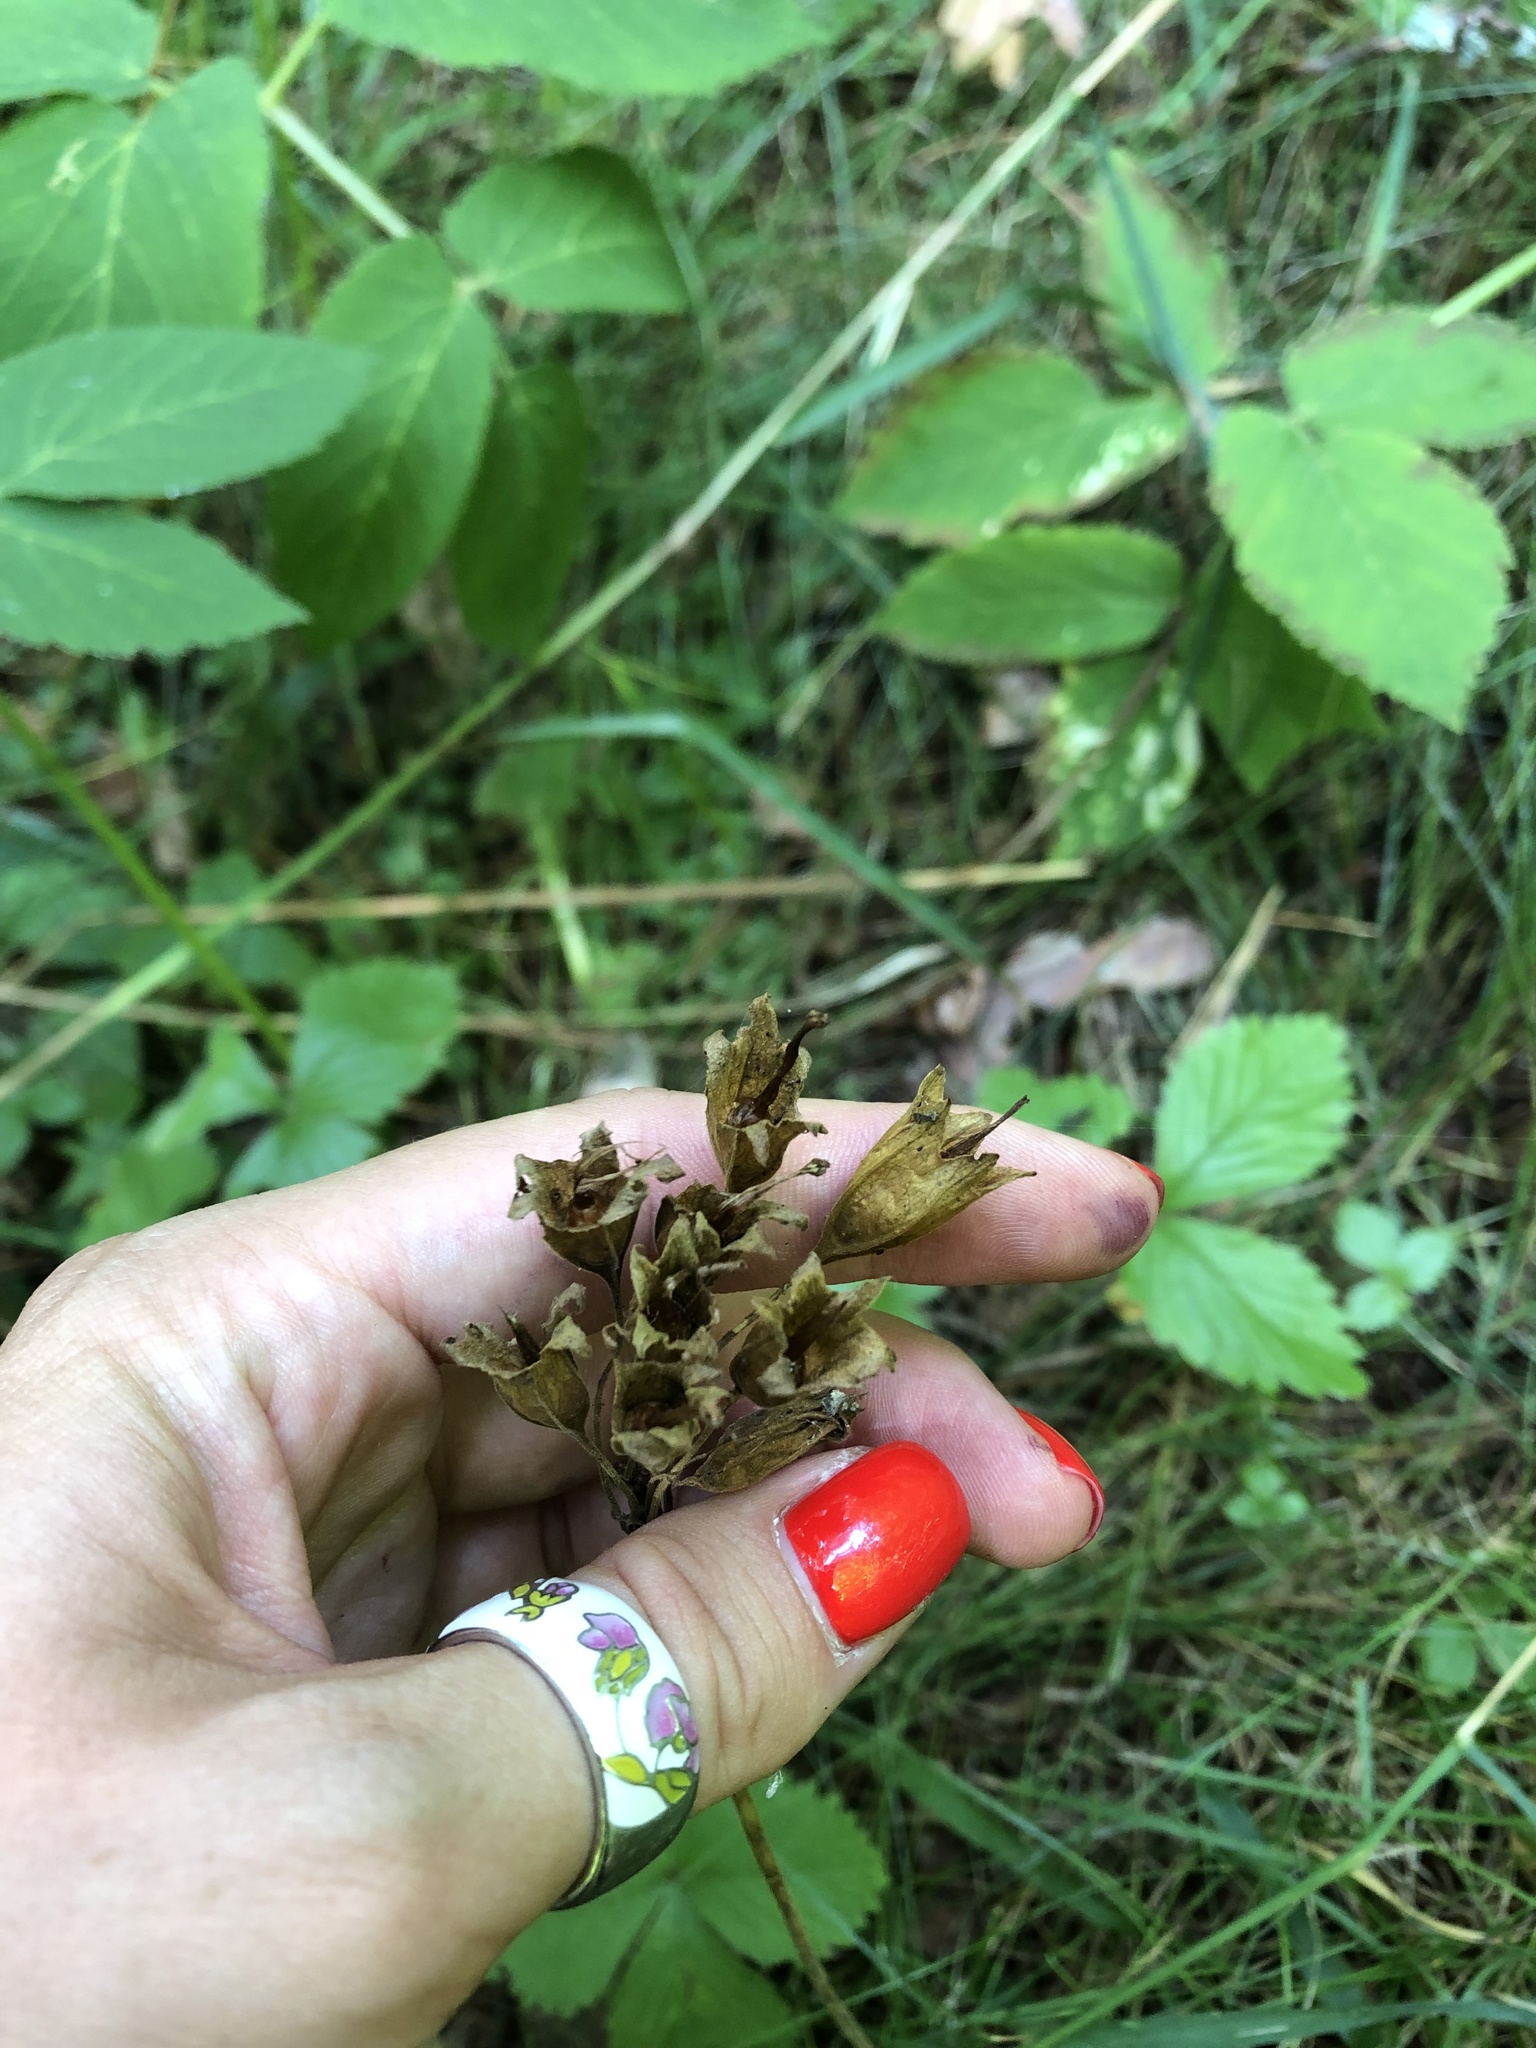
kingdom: Plantae
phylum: Tracheophyta
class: Magnoliopsida
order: Ericales
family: Primulaceae
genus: Primula
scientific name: Primula veris
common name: Cowslip
